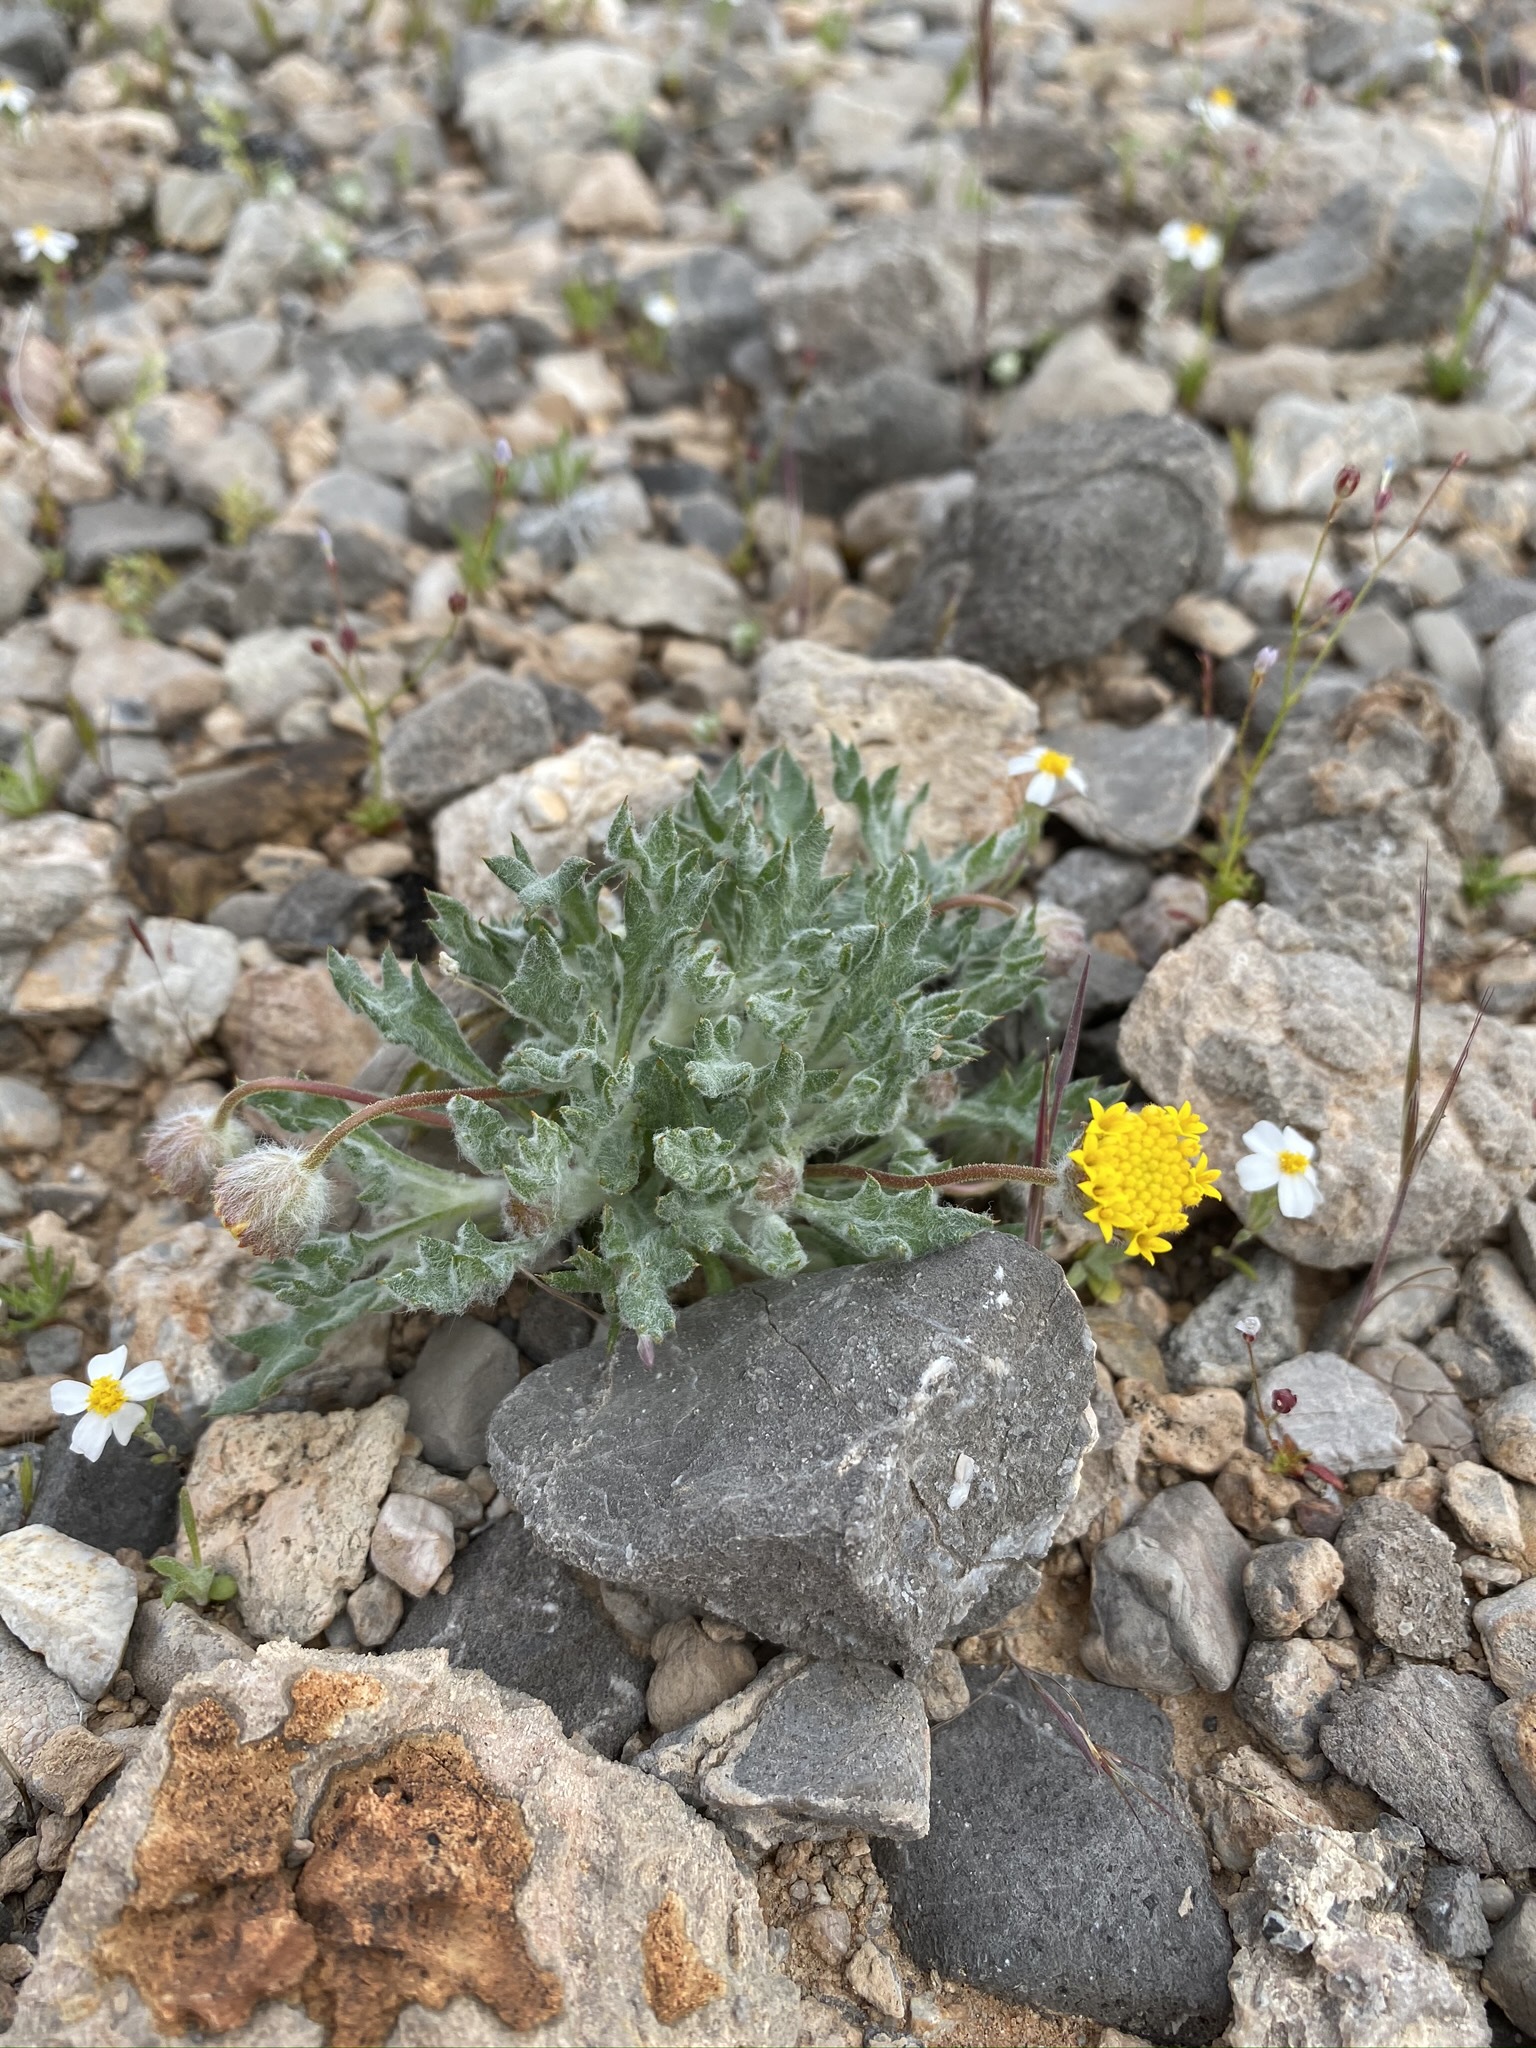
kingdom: Plantae
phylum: Tracheophyta
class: Magnoliopsida
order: Asterales
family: Asteraceae
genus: Trichoptilium
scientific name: Trichoptilium incisum
